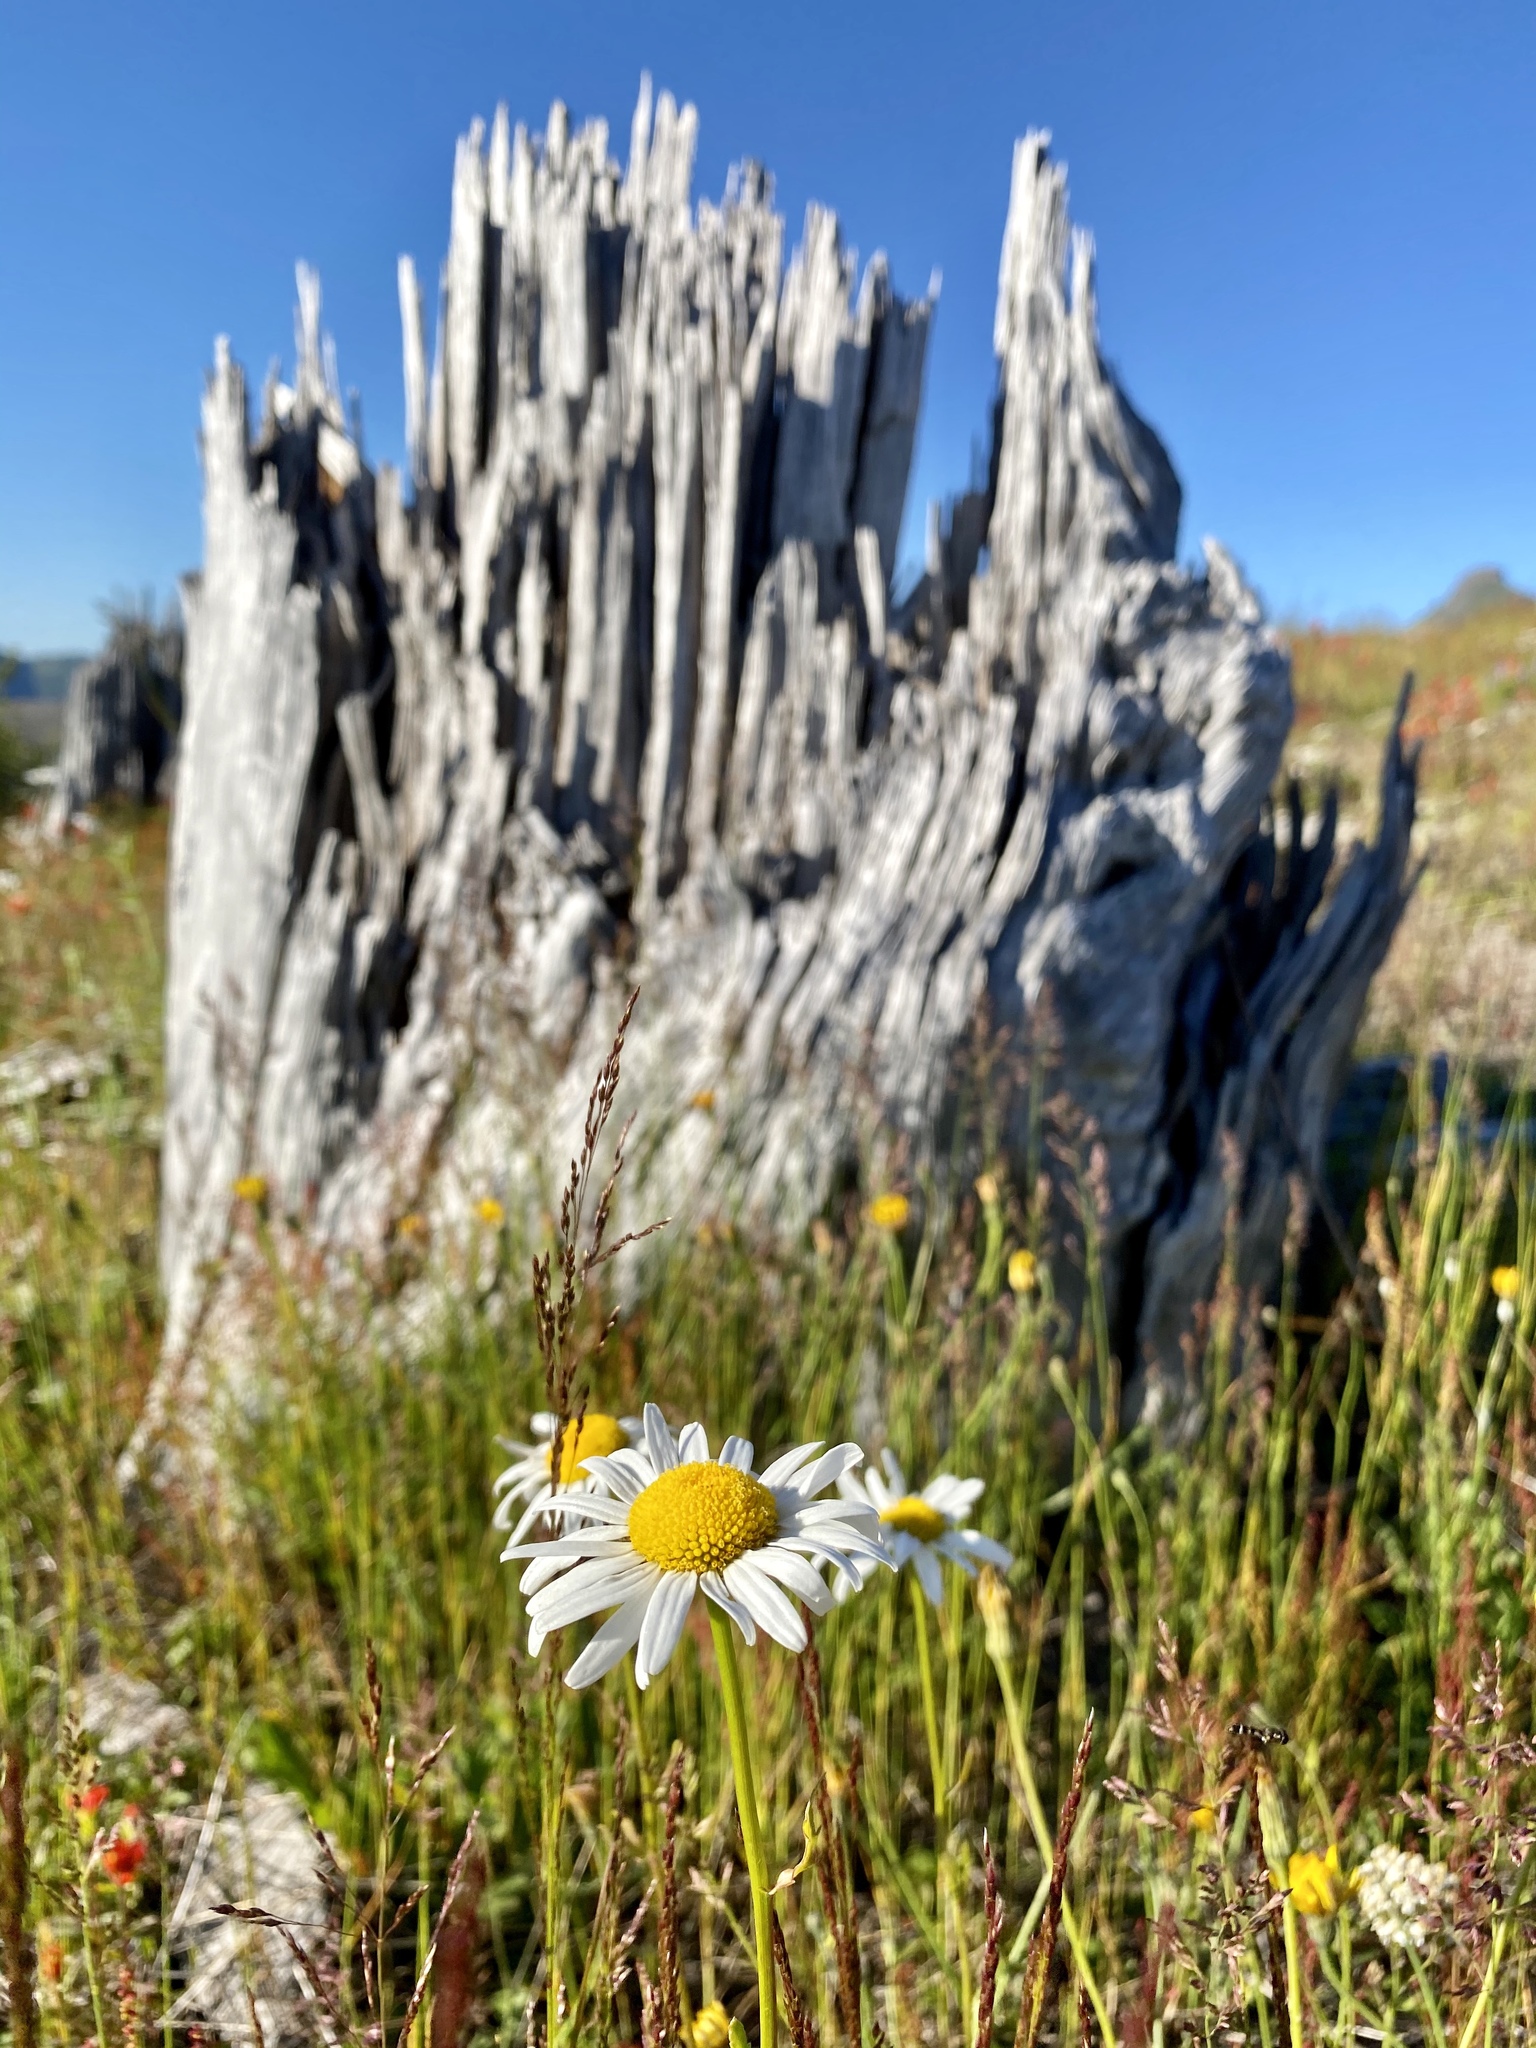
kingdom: Plantae
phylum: Tracheophyta
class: Magnoliopsida
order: Asterales
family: Asteraceae
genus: Leucanthemum
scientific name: Leucanthemum vulgare
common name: Oxeye daisy
